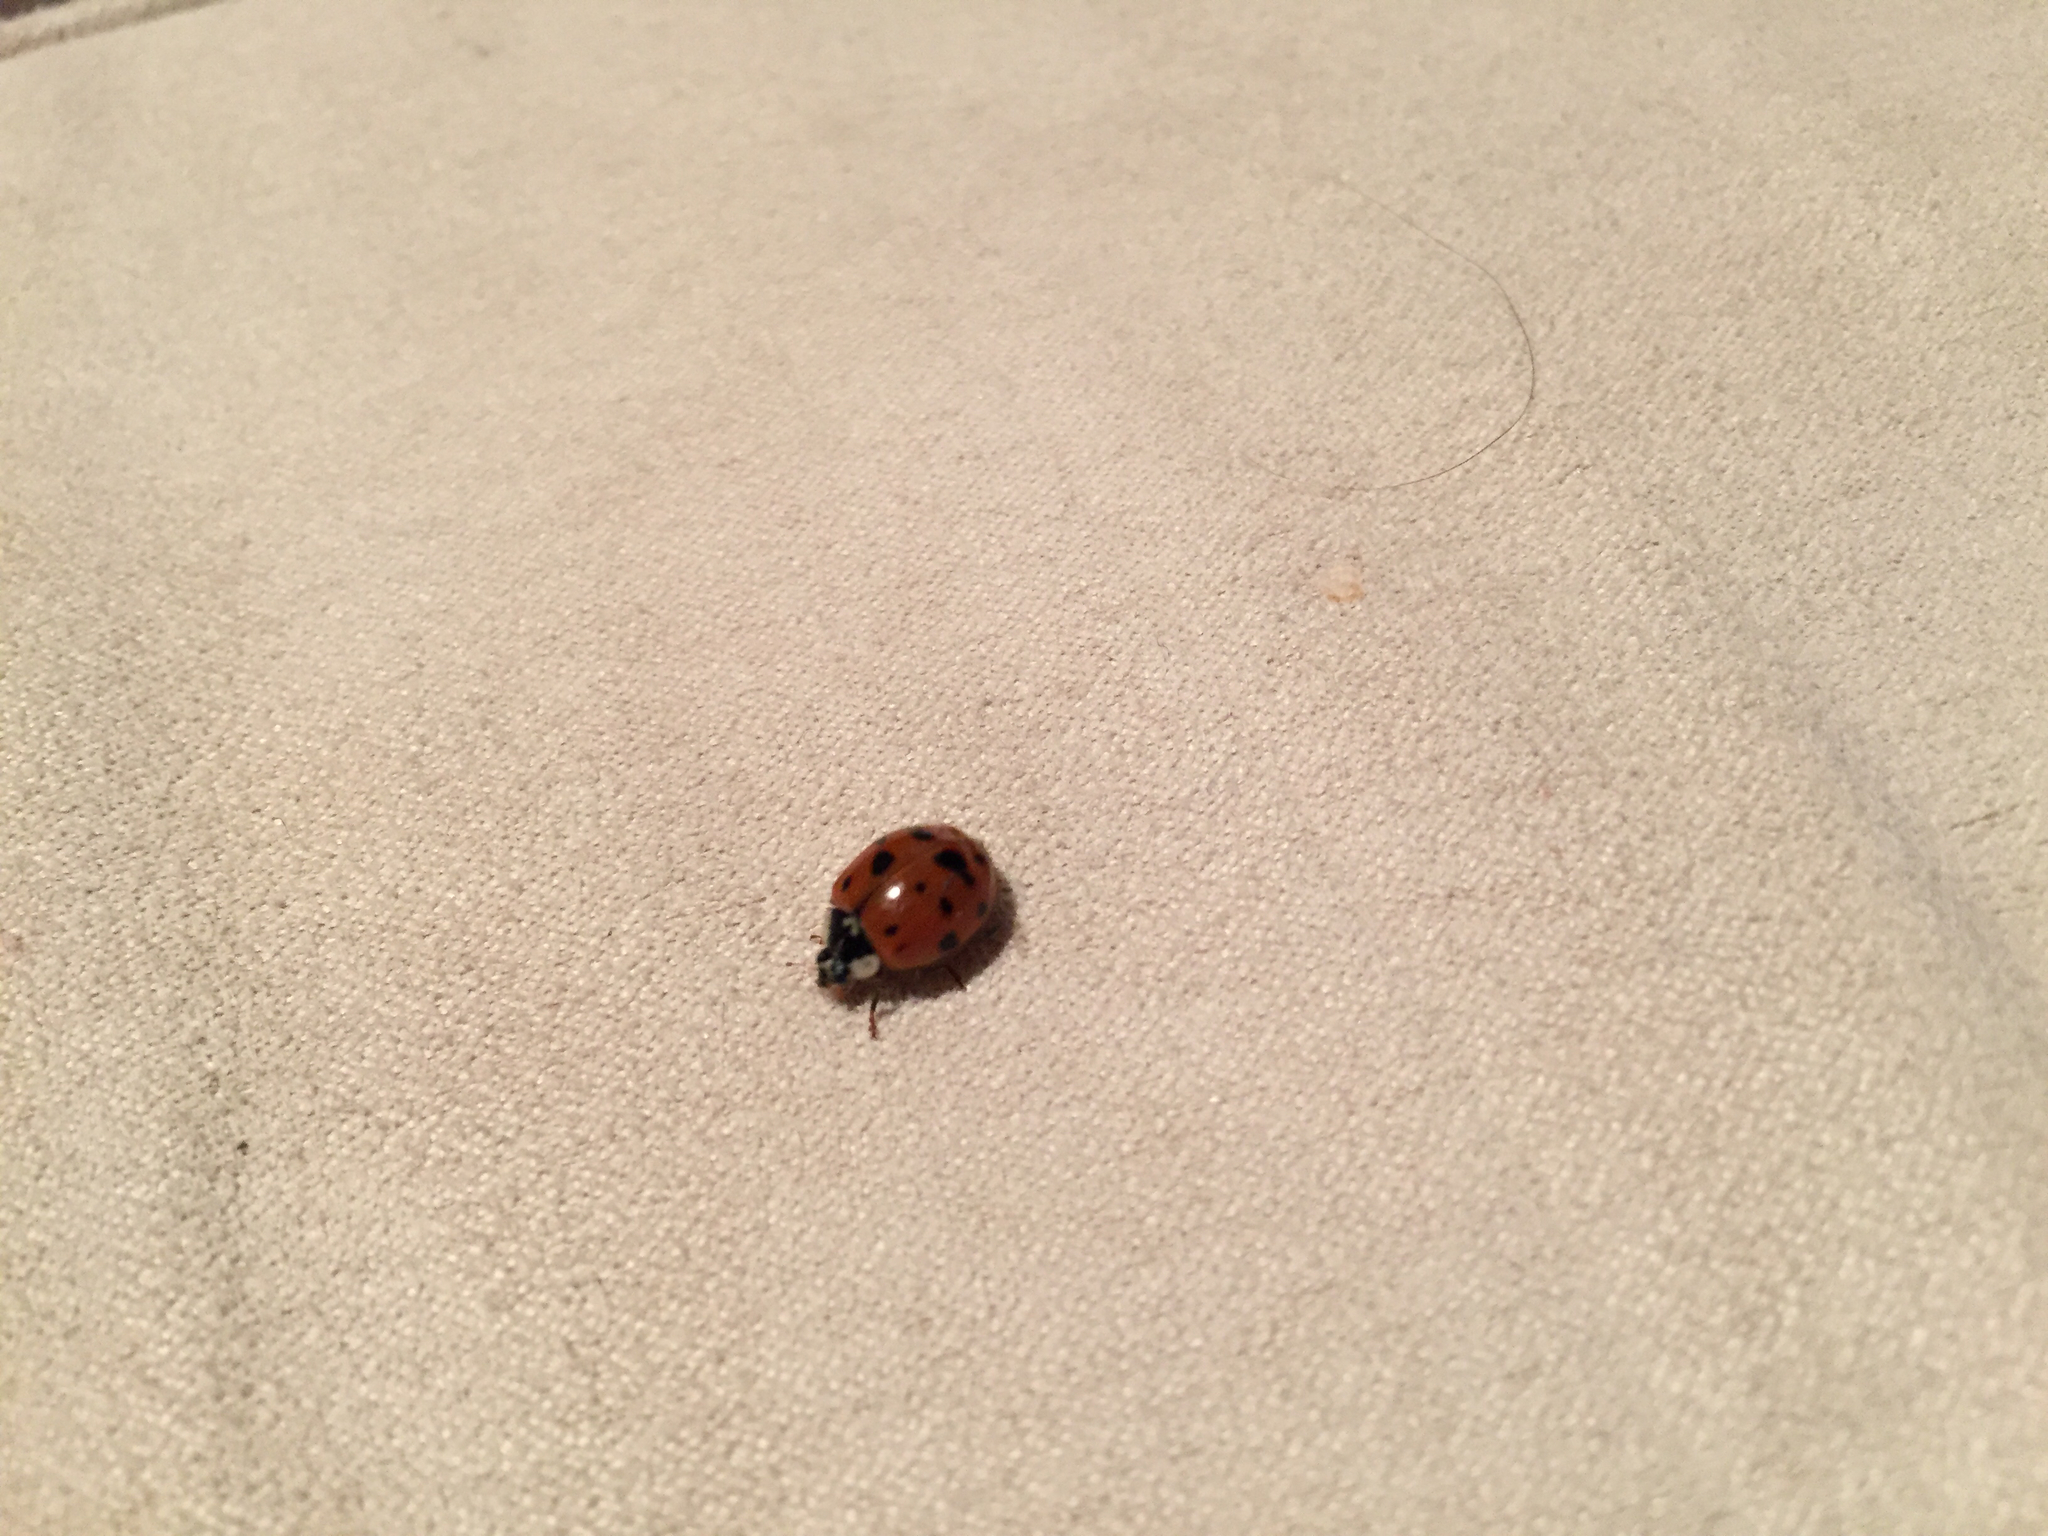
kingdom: Animalia
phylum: Arthropoda
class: Insecta
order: Coleoptera
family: Coccinellidae
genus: Harmonia
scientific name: Harmonia axyridis
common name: Harlequin ladybird
